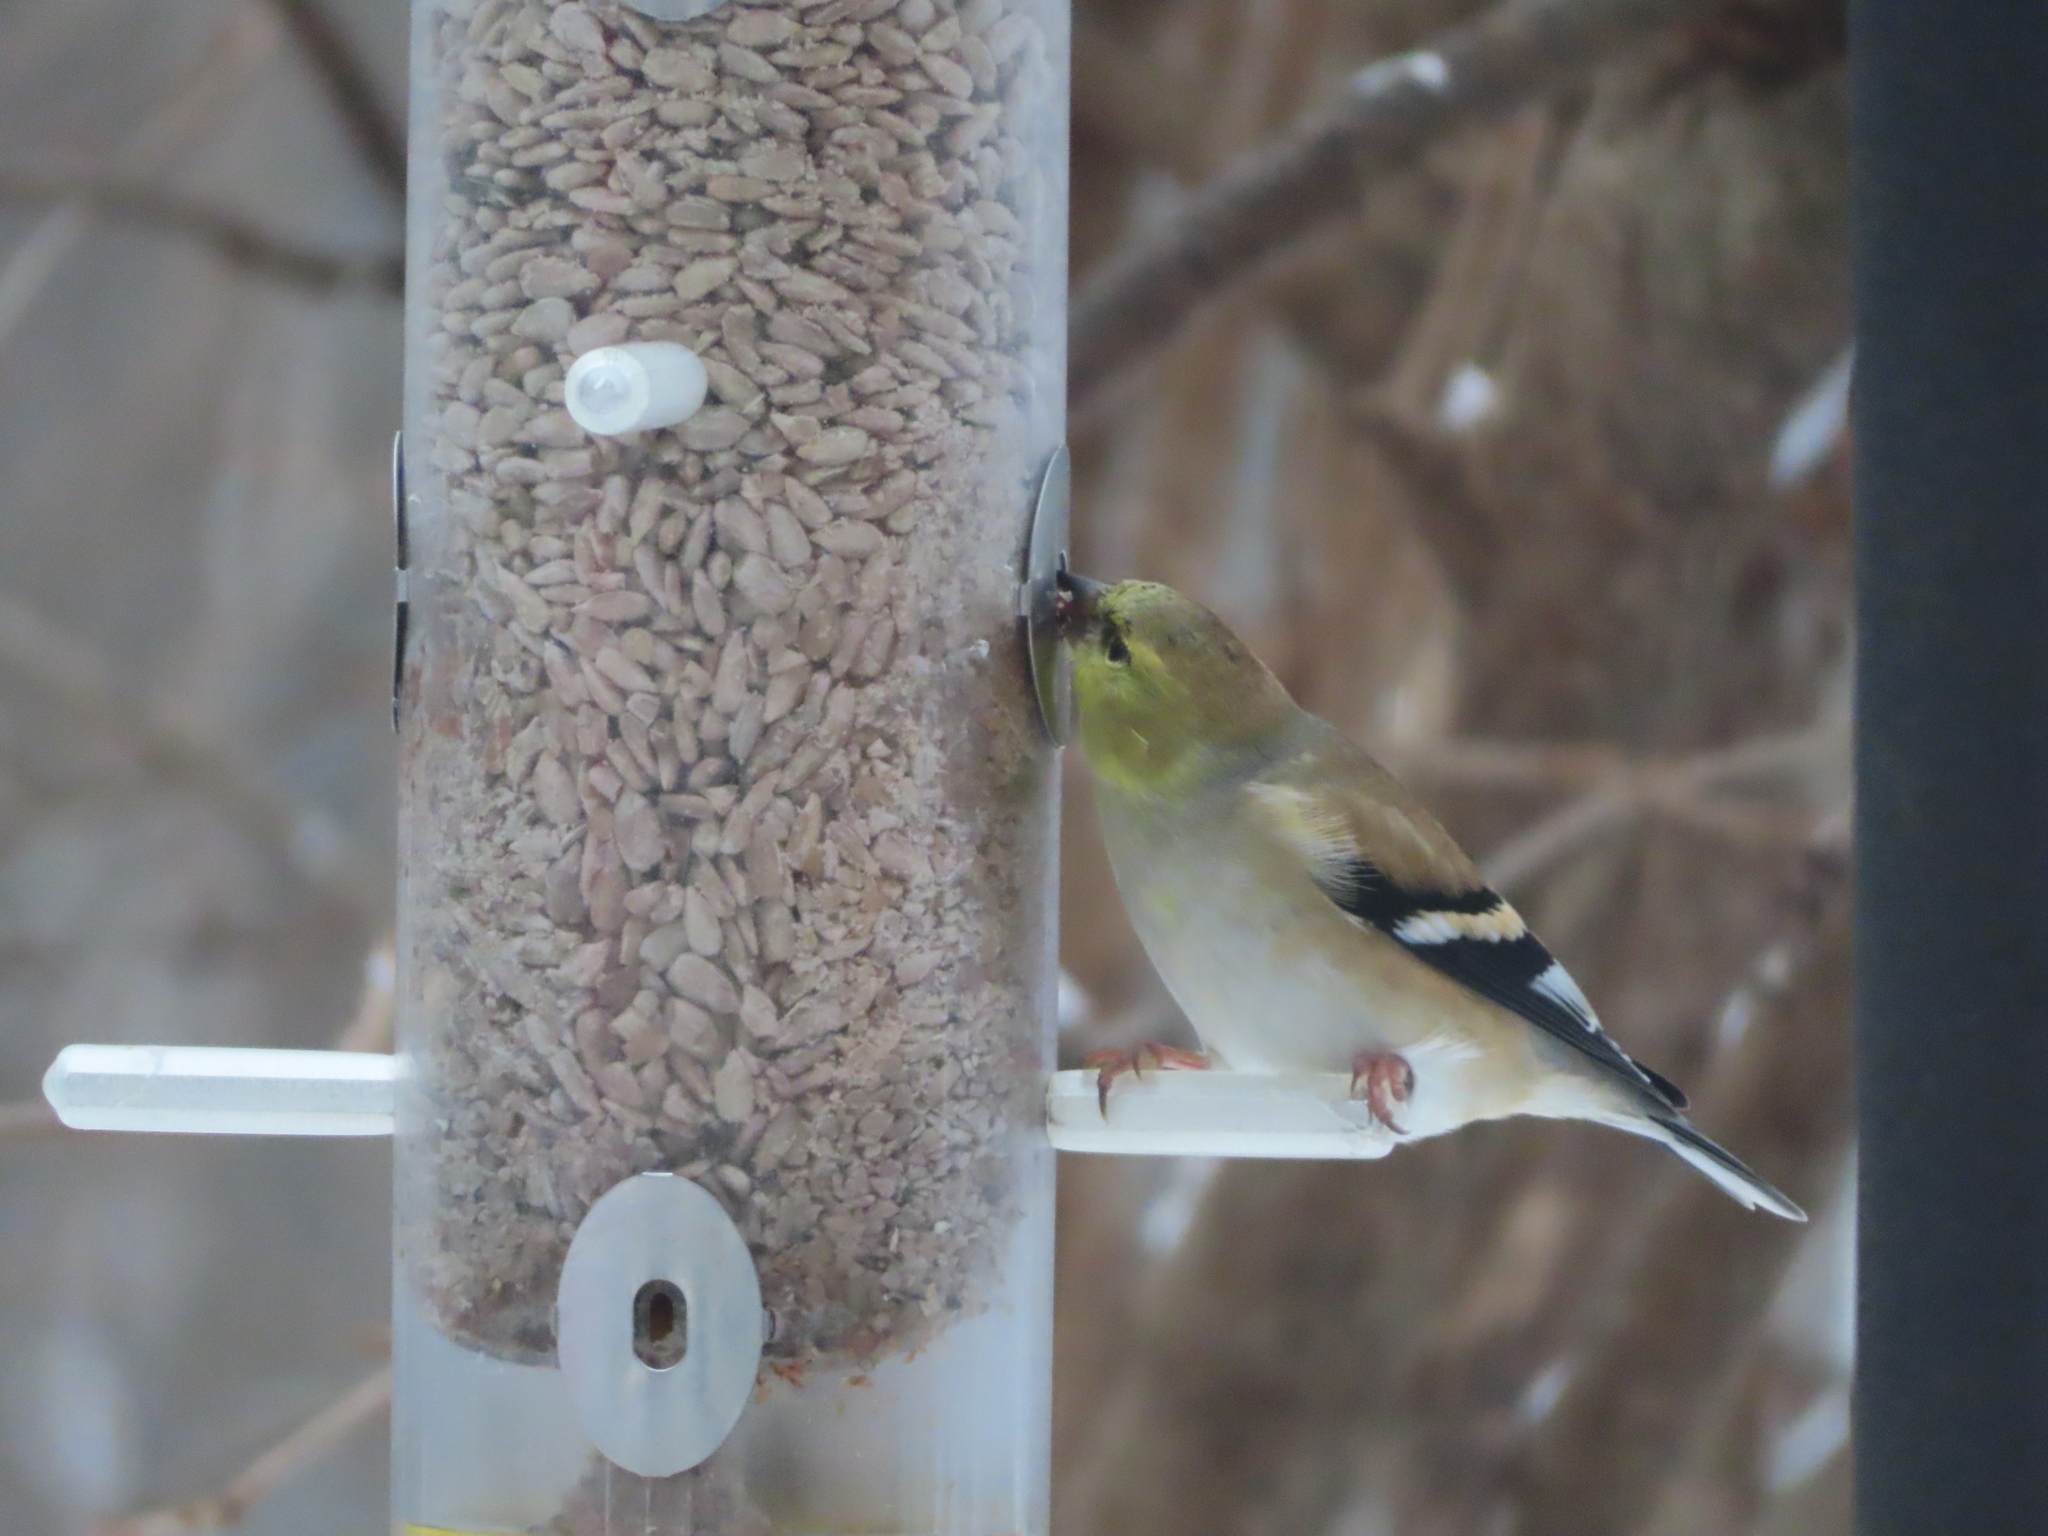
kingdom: Animalia
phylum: Chordata
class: Aves
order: Passeriformes
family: Fringillidae
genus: Spinus
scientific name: Spinus tristis
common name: American goldfinch
